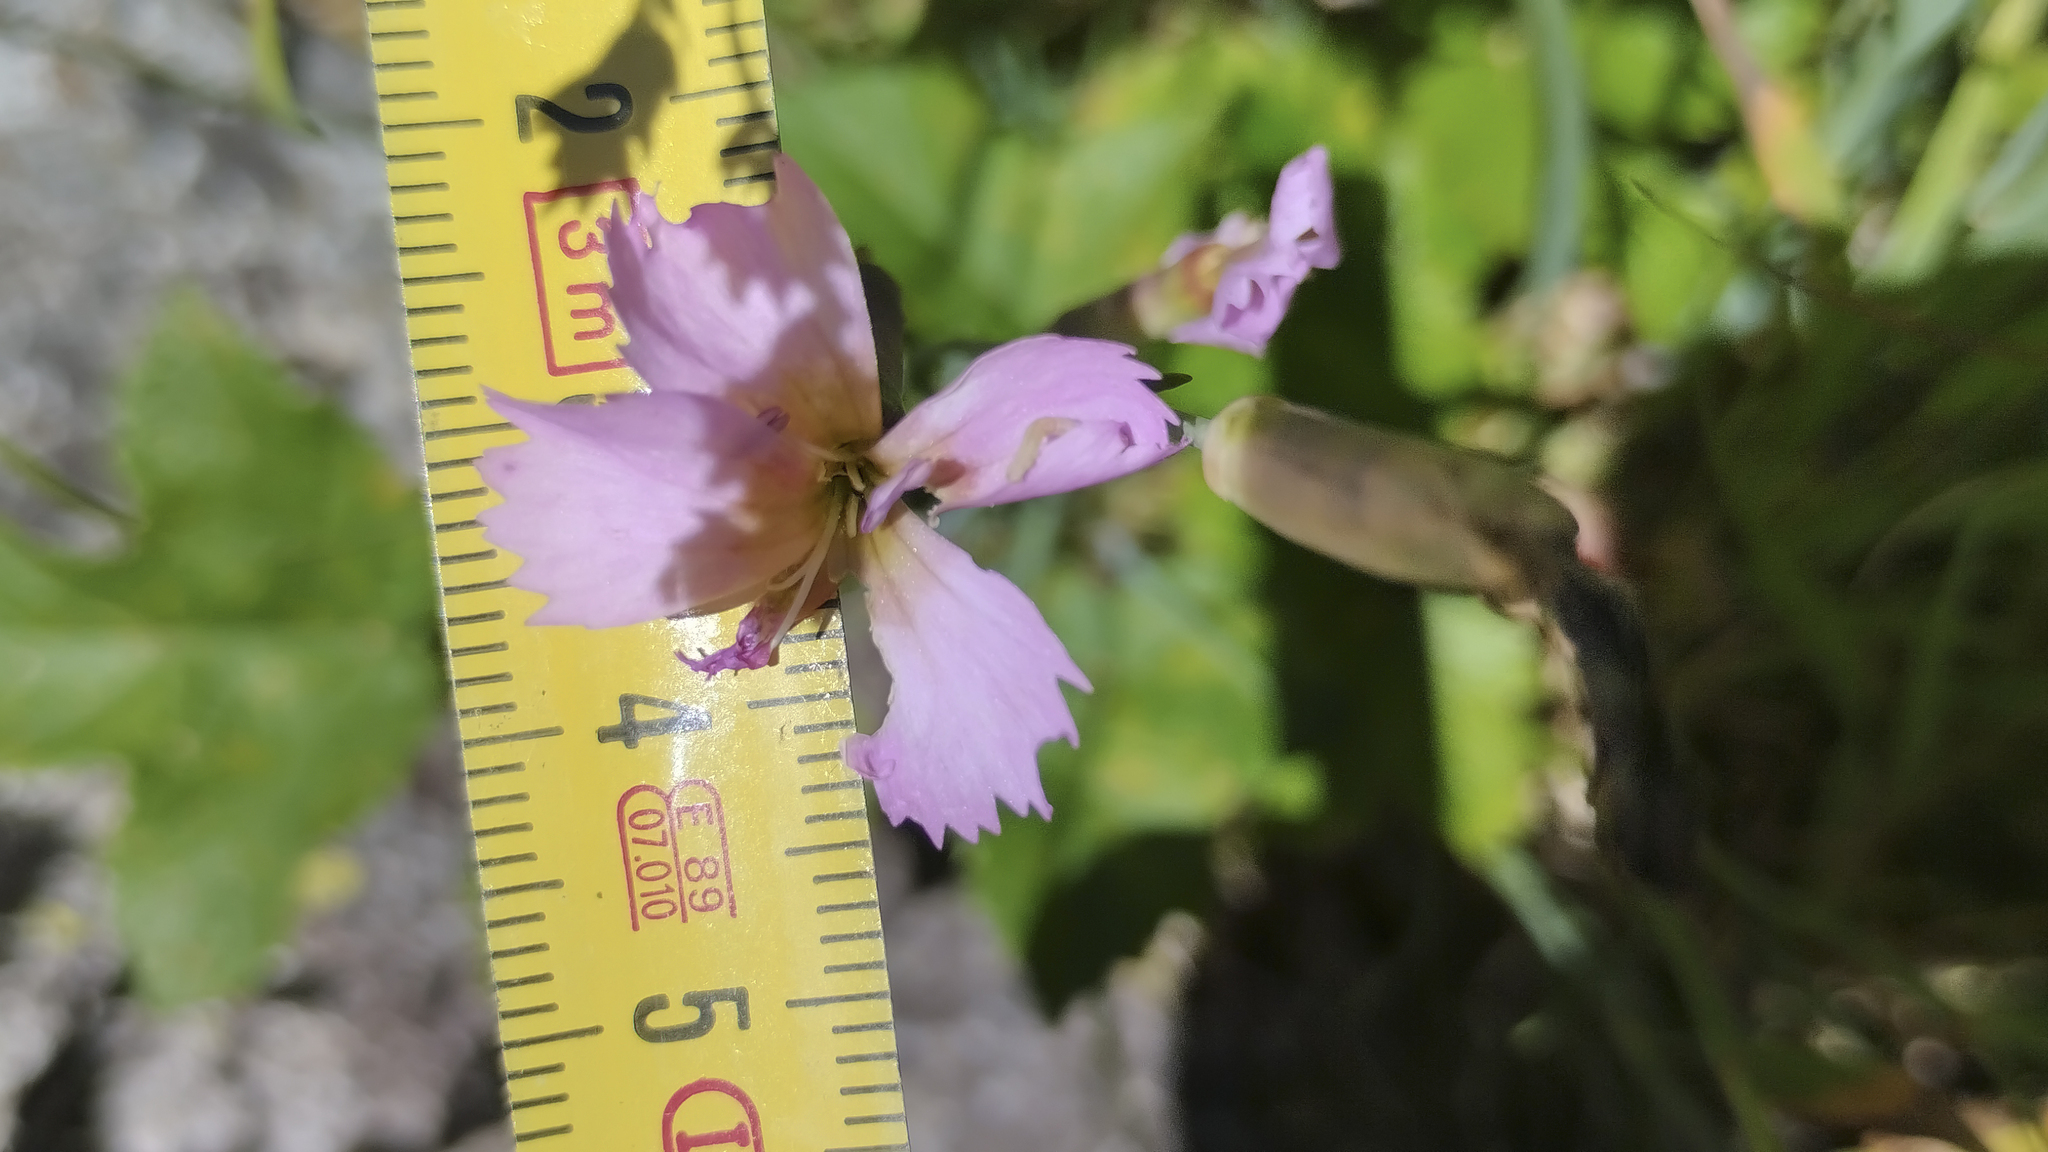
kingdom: Plantae
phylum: Tracheophyta
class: Magnoliopsida
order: Caryophyllales
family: Caryophyllaceae
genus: Dianthus
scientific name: Dianthus sylvestris
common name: Wood pink
